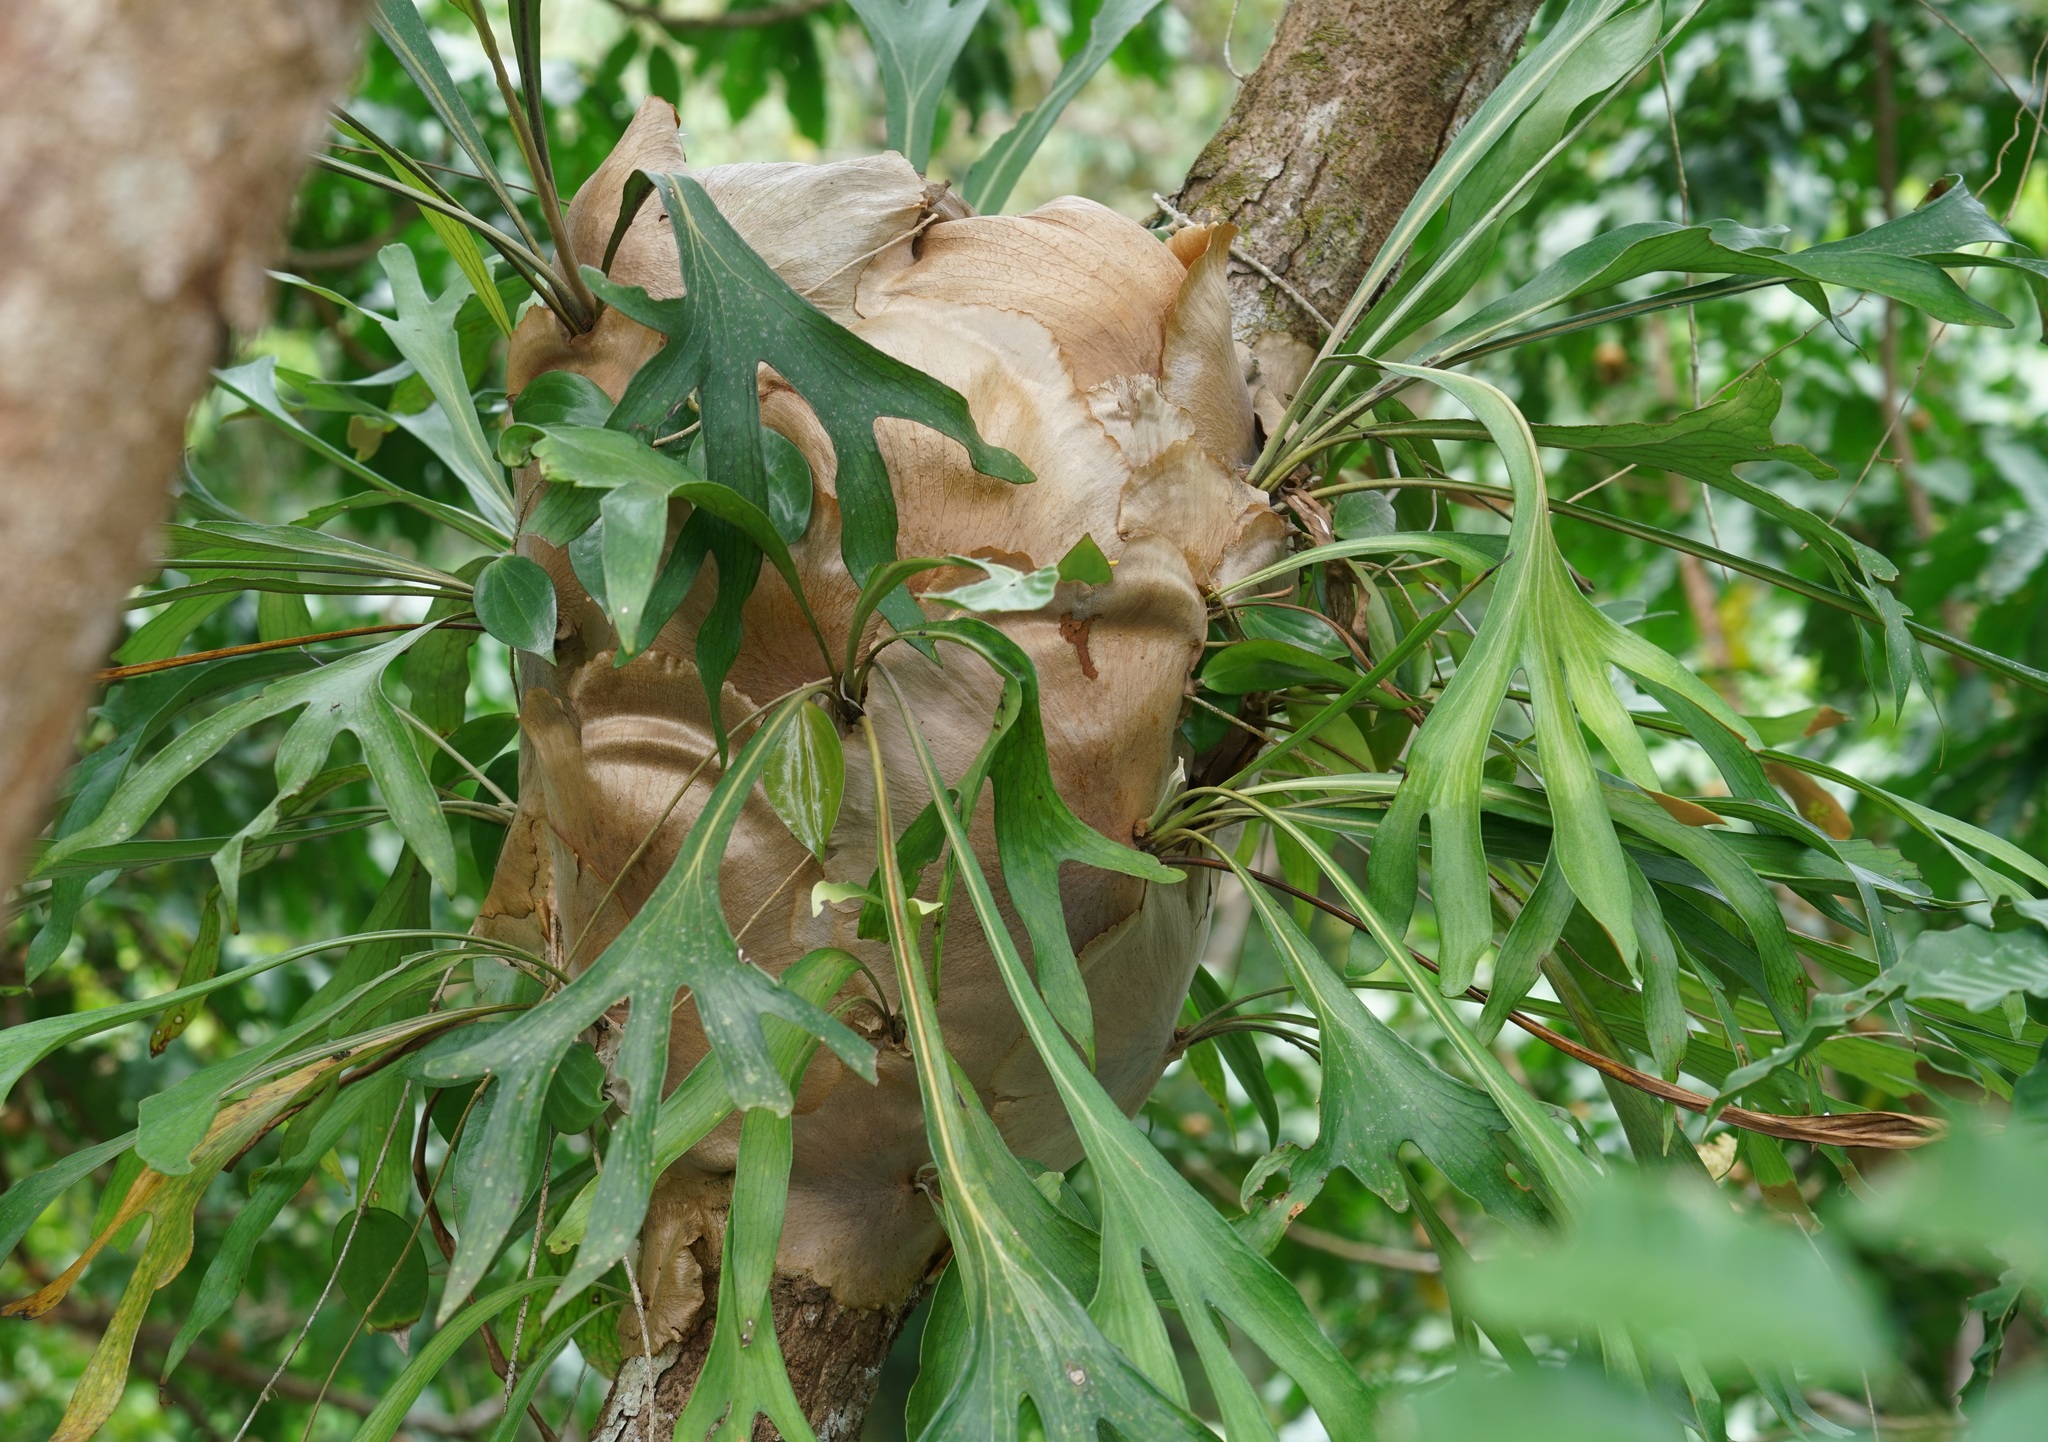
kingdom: Plantae
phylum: Tracheophyta
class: Polypodiopsida
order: Polypodiales
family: Polypodiaceae
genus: Platycerium
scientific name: Platycerium hillii
